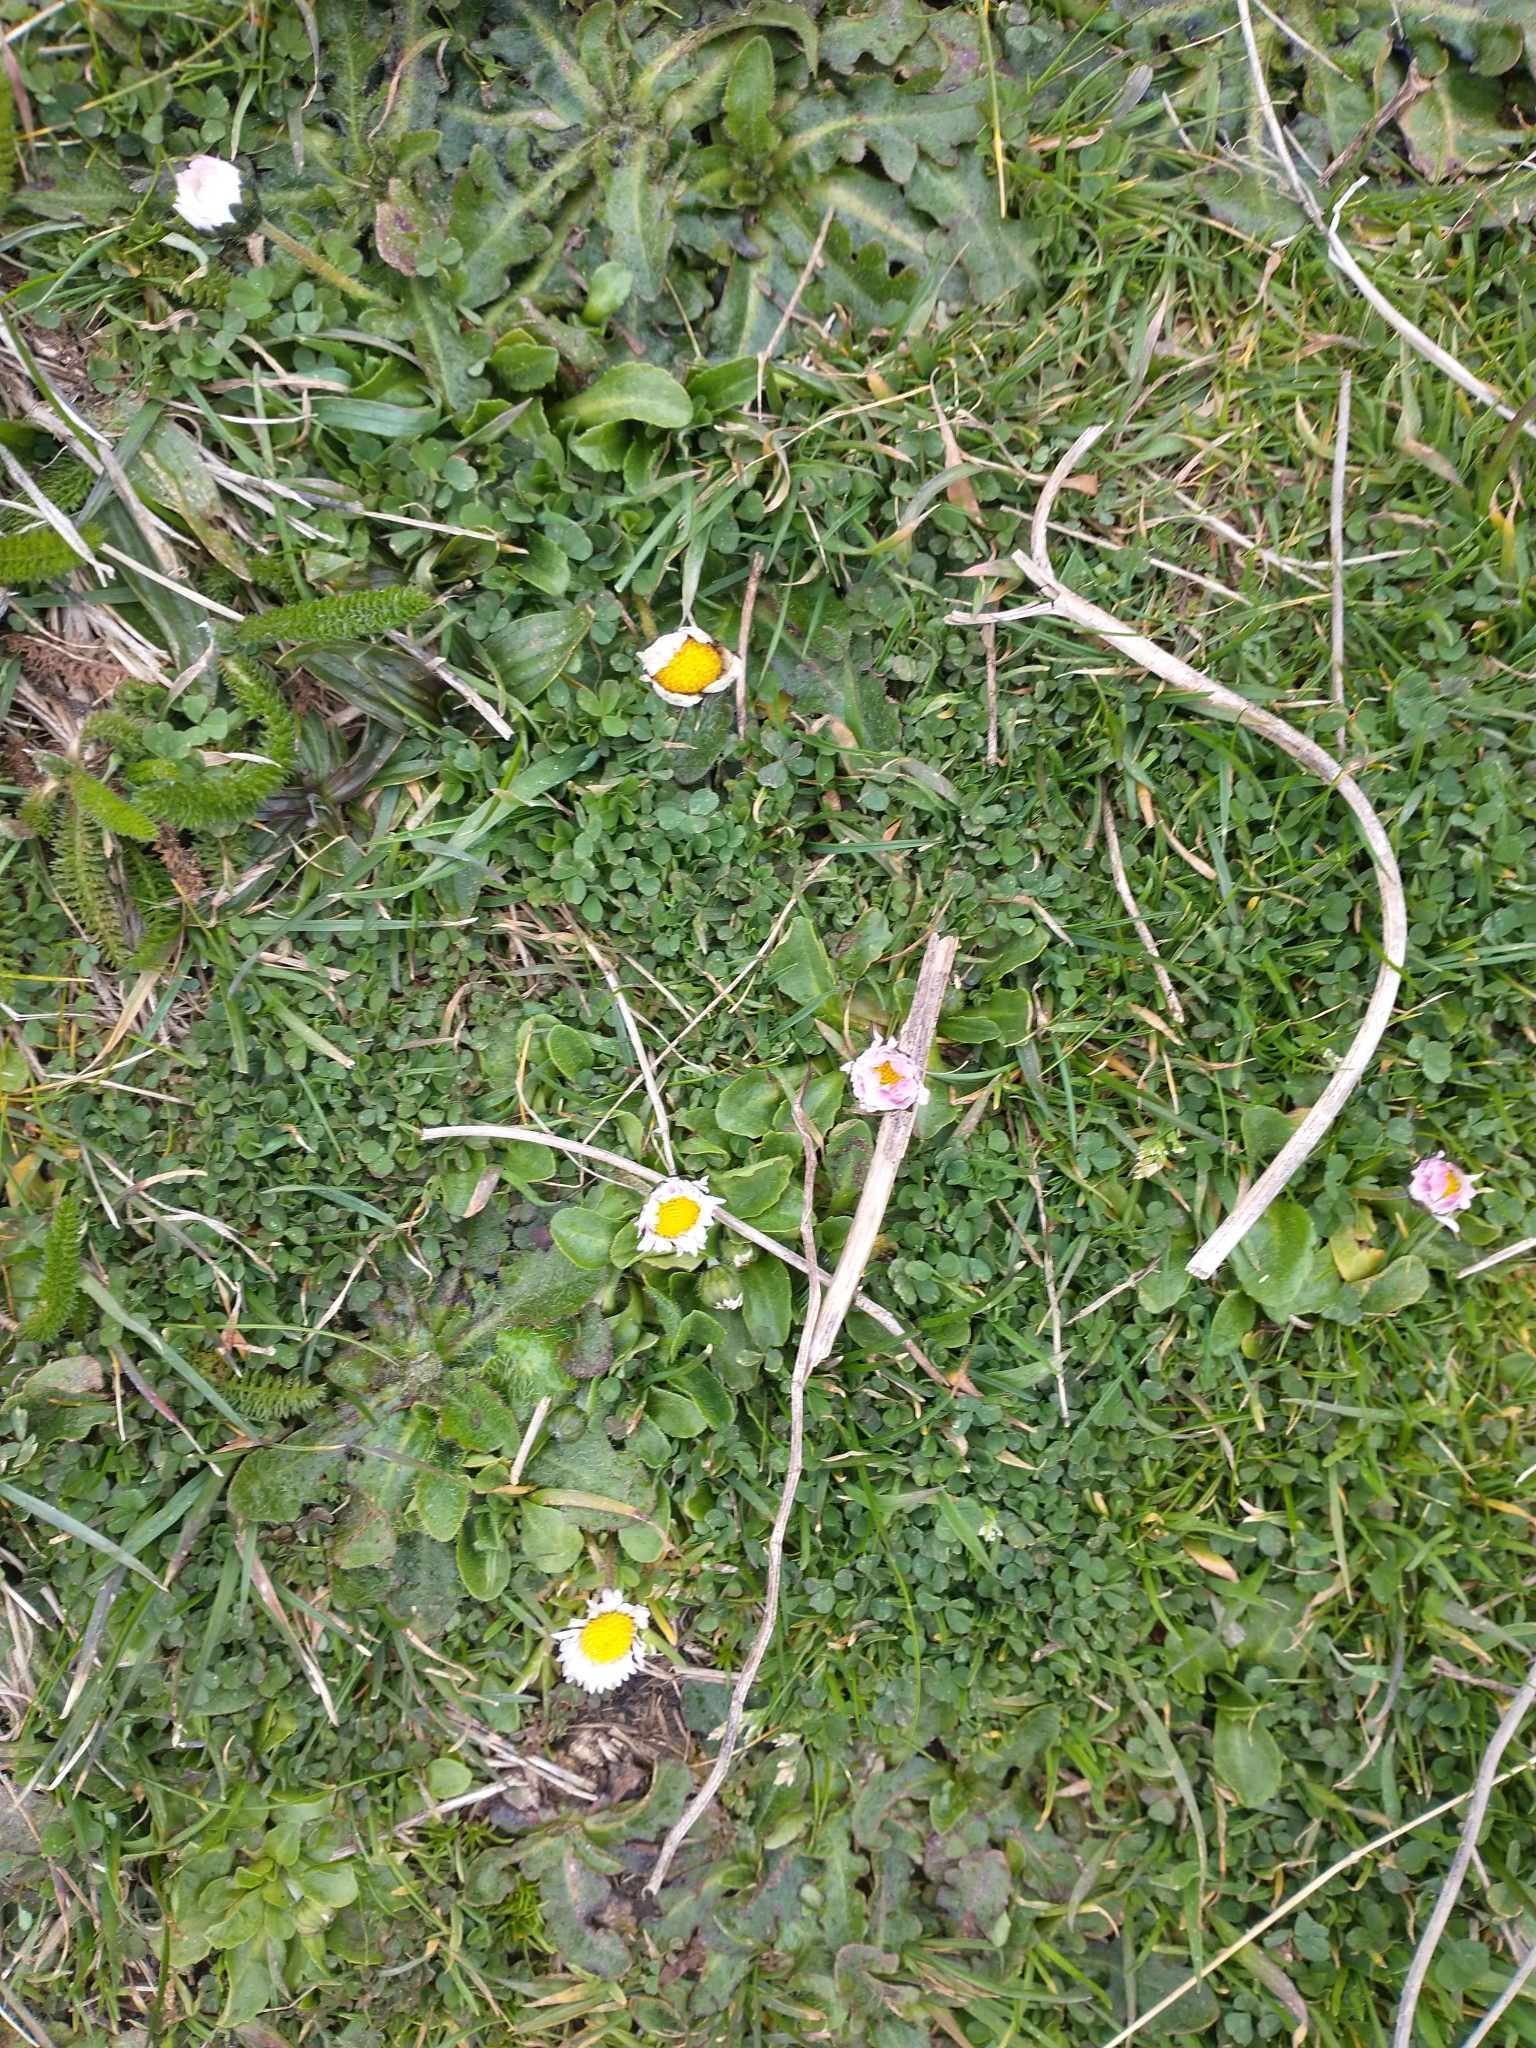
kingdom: Plantae
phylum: Tracheophyta
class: Magnoliopsida
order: Asterales
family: Asteraceae
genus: Bellis
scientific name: Bellis perennis
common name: Lawndaisy
